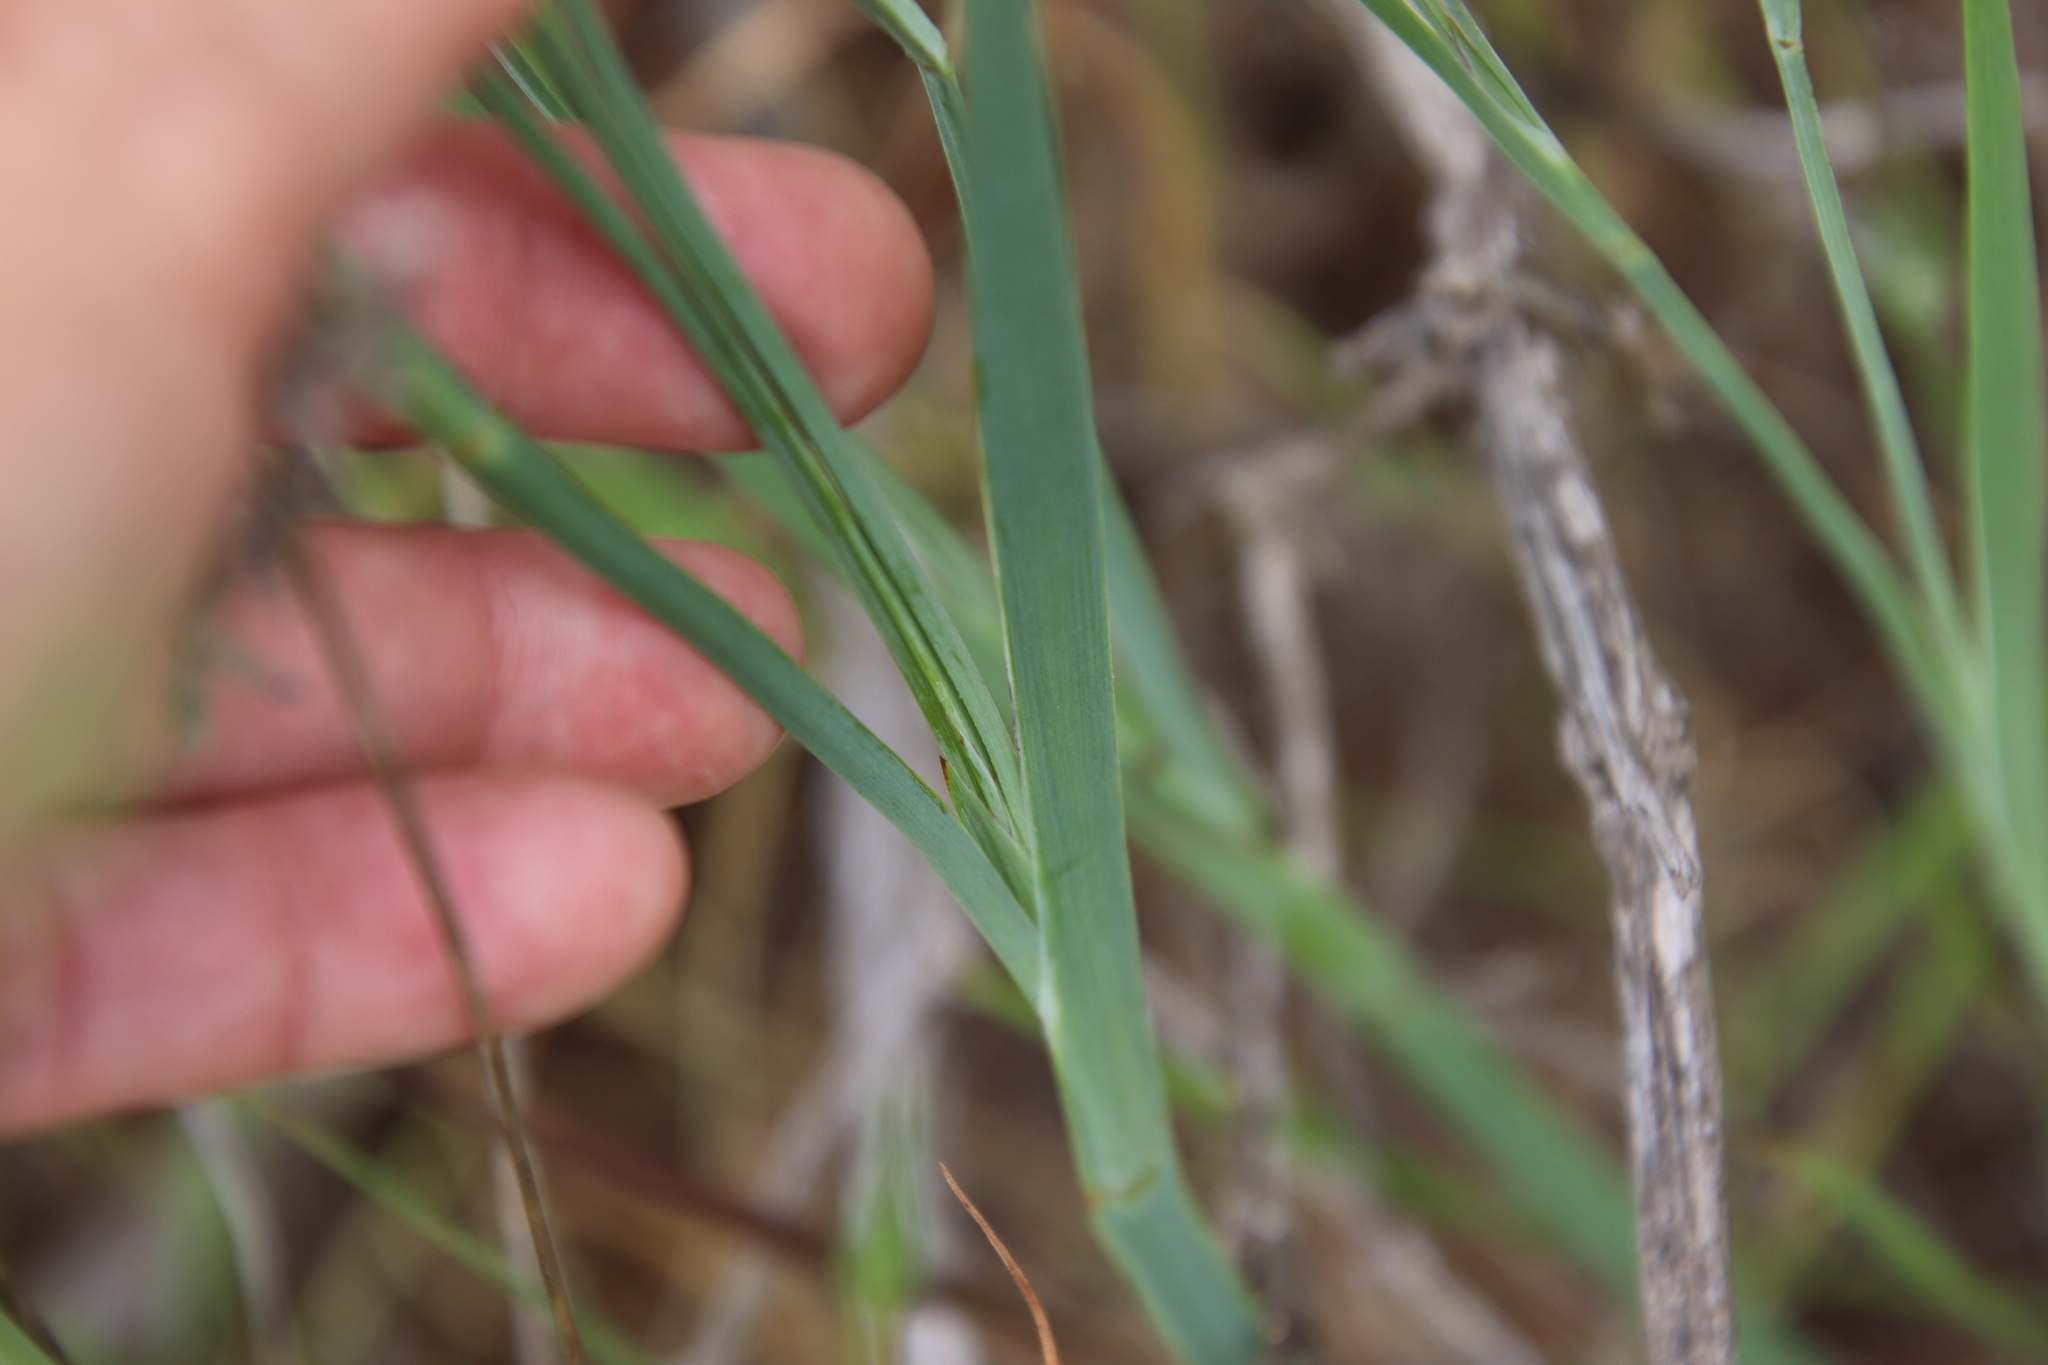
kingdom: Plantae
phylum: Tracheophyta
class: Liliopsida
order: Asparagales
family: Iridaceae
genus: Sisyrinchium
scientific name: Sisyrinchium bellum
